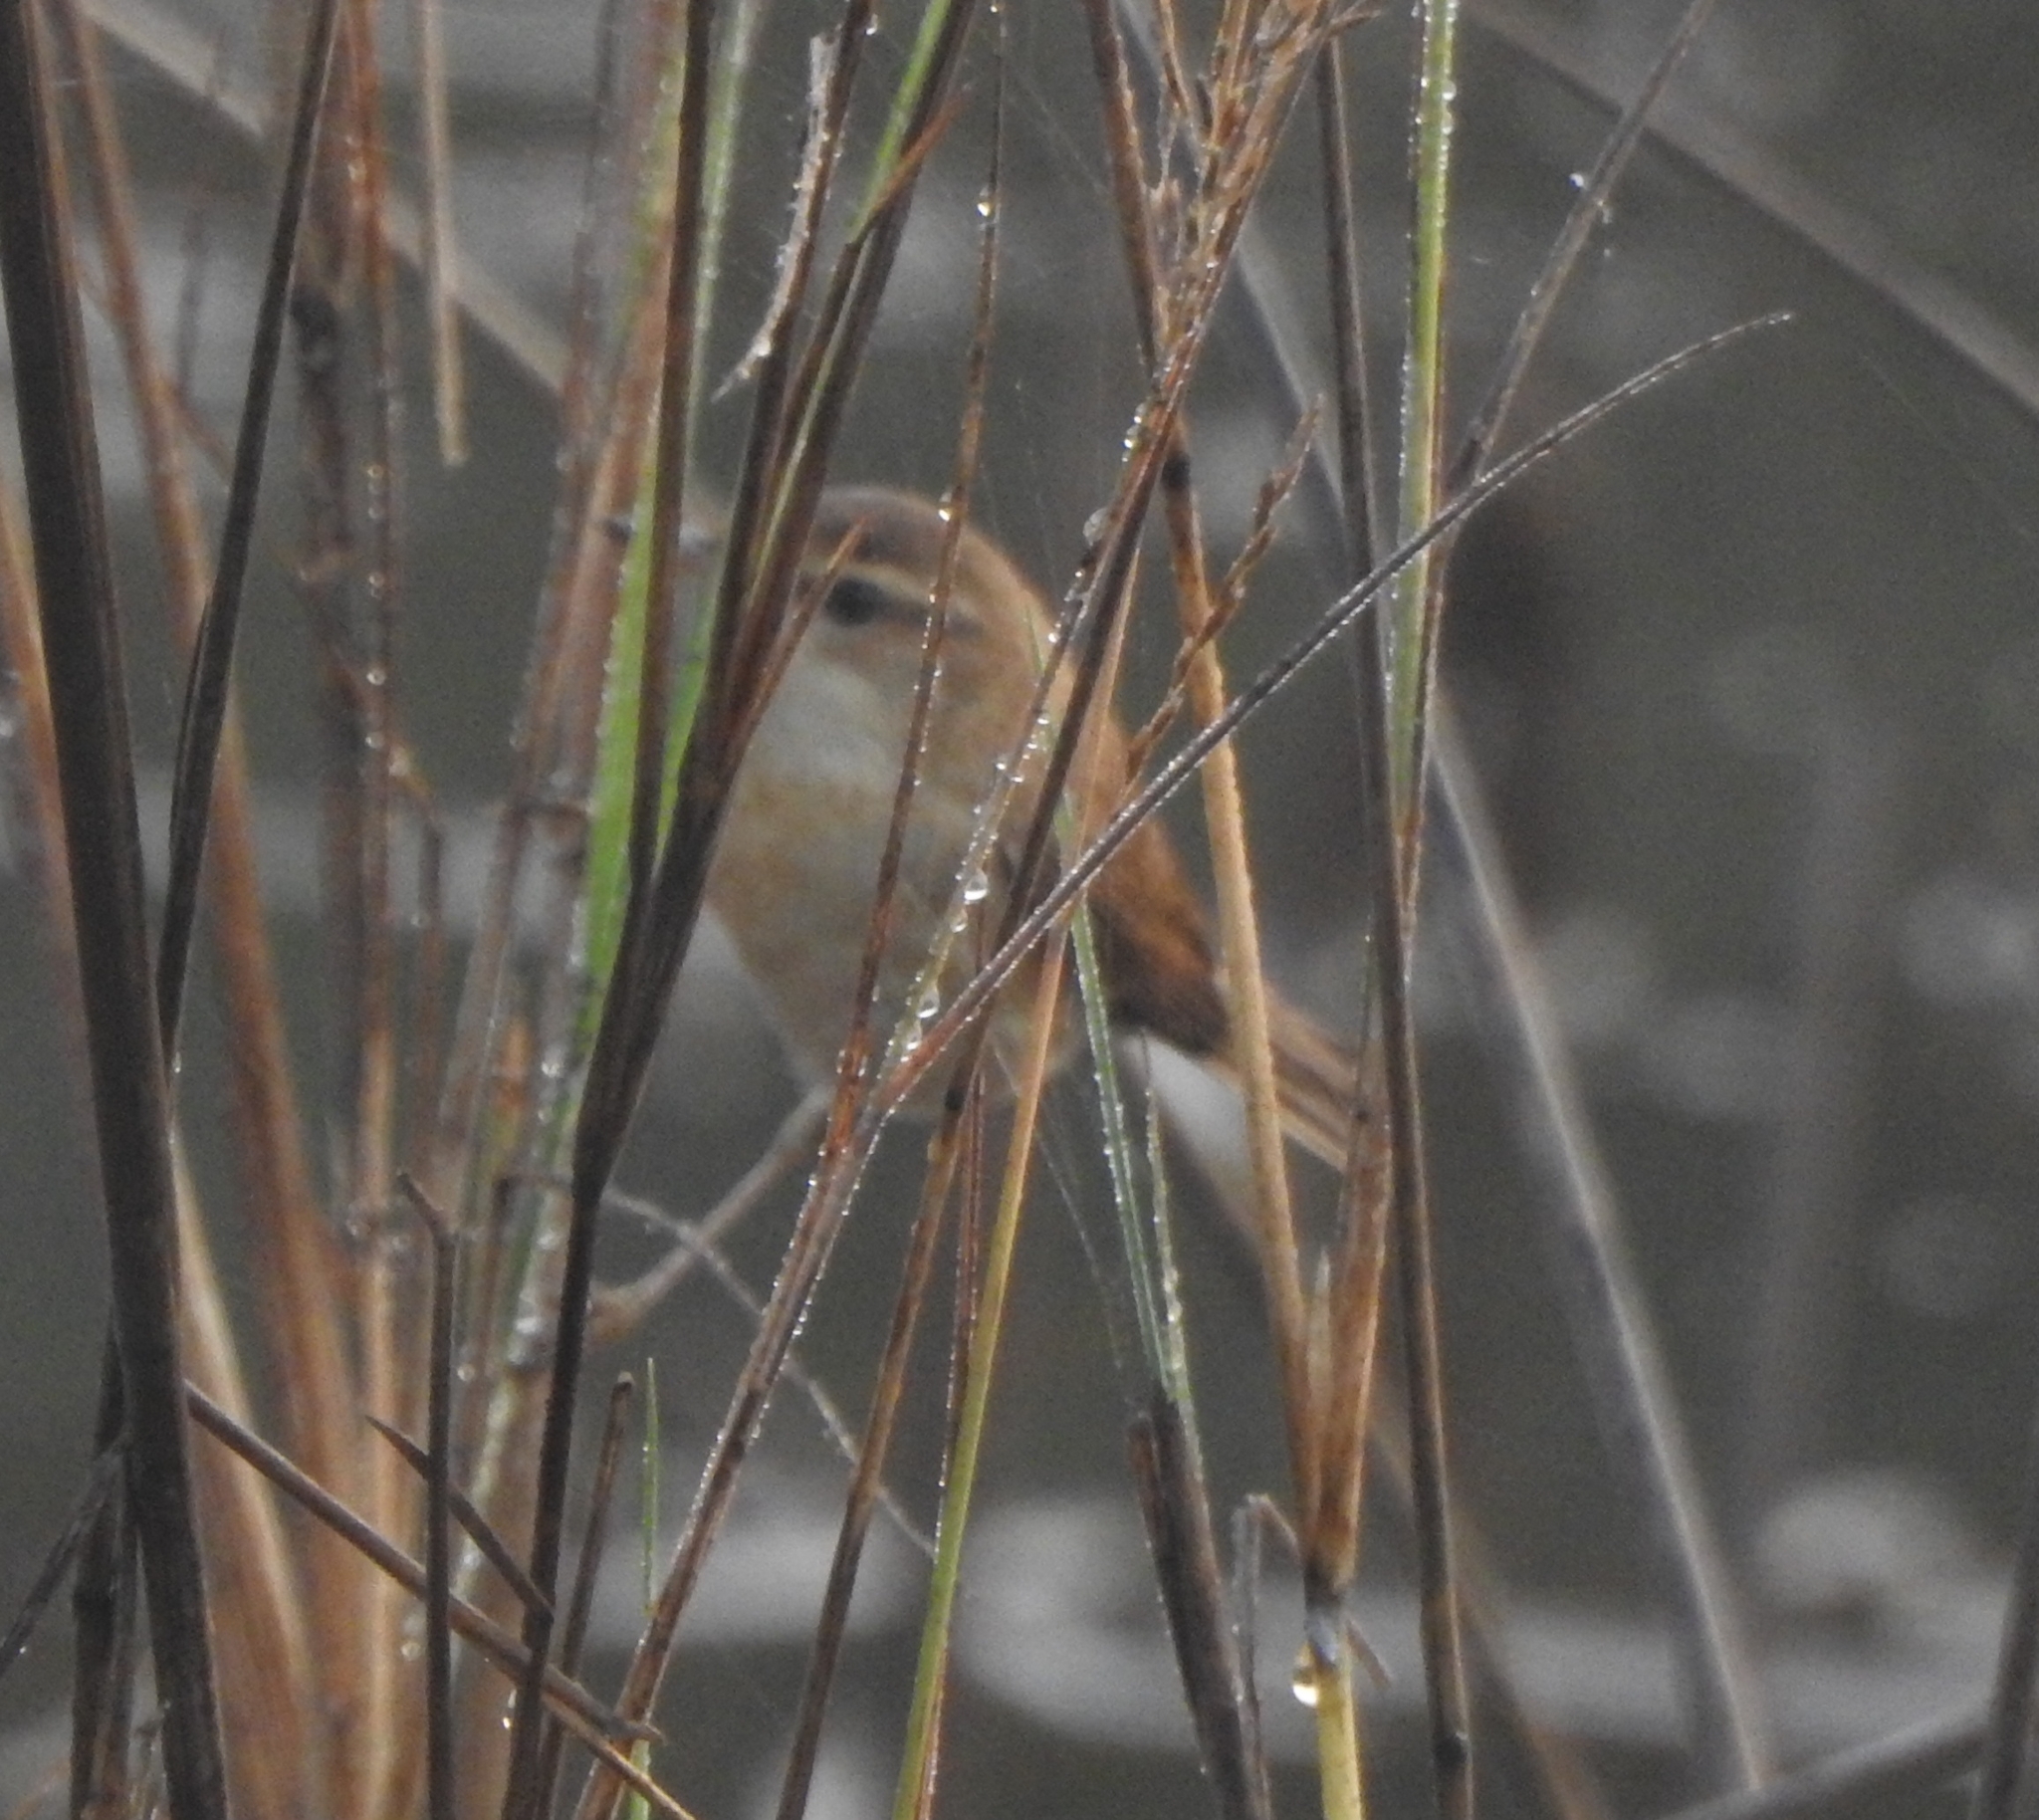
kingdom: Animalia
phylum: Chordata
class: Aves
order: Passeriformes
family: Acrocephalidae
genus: Acrocephalus
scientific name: Acrocephalus agricola
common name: Paddyfield warbler
